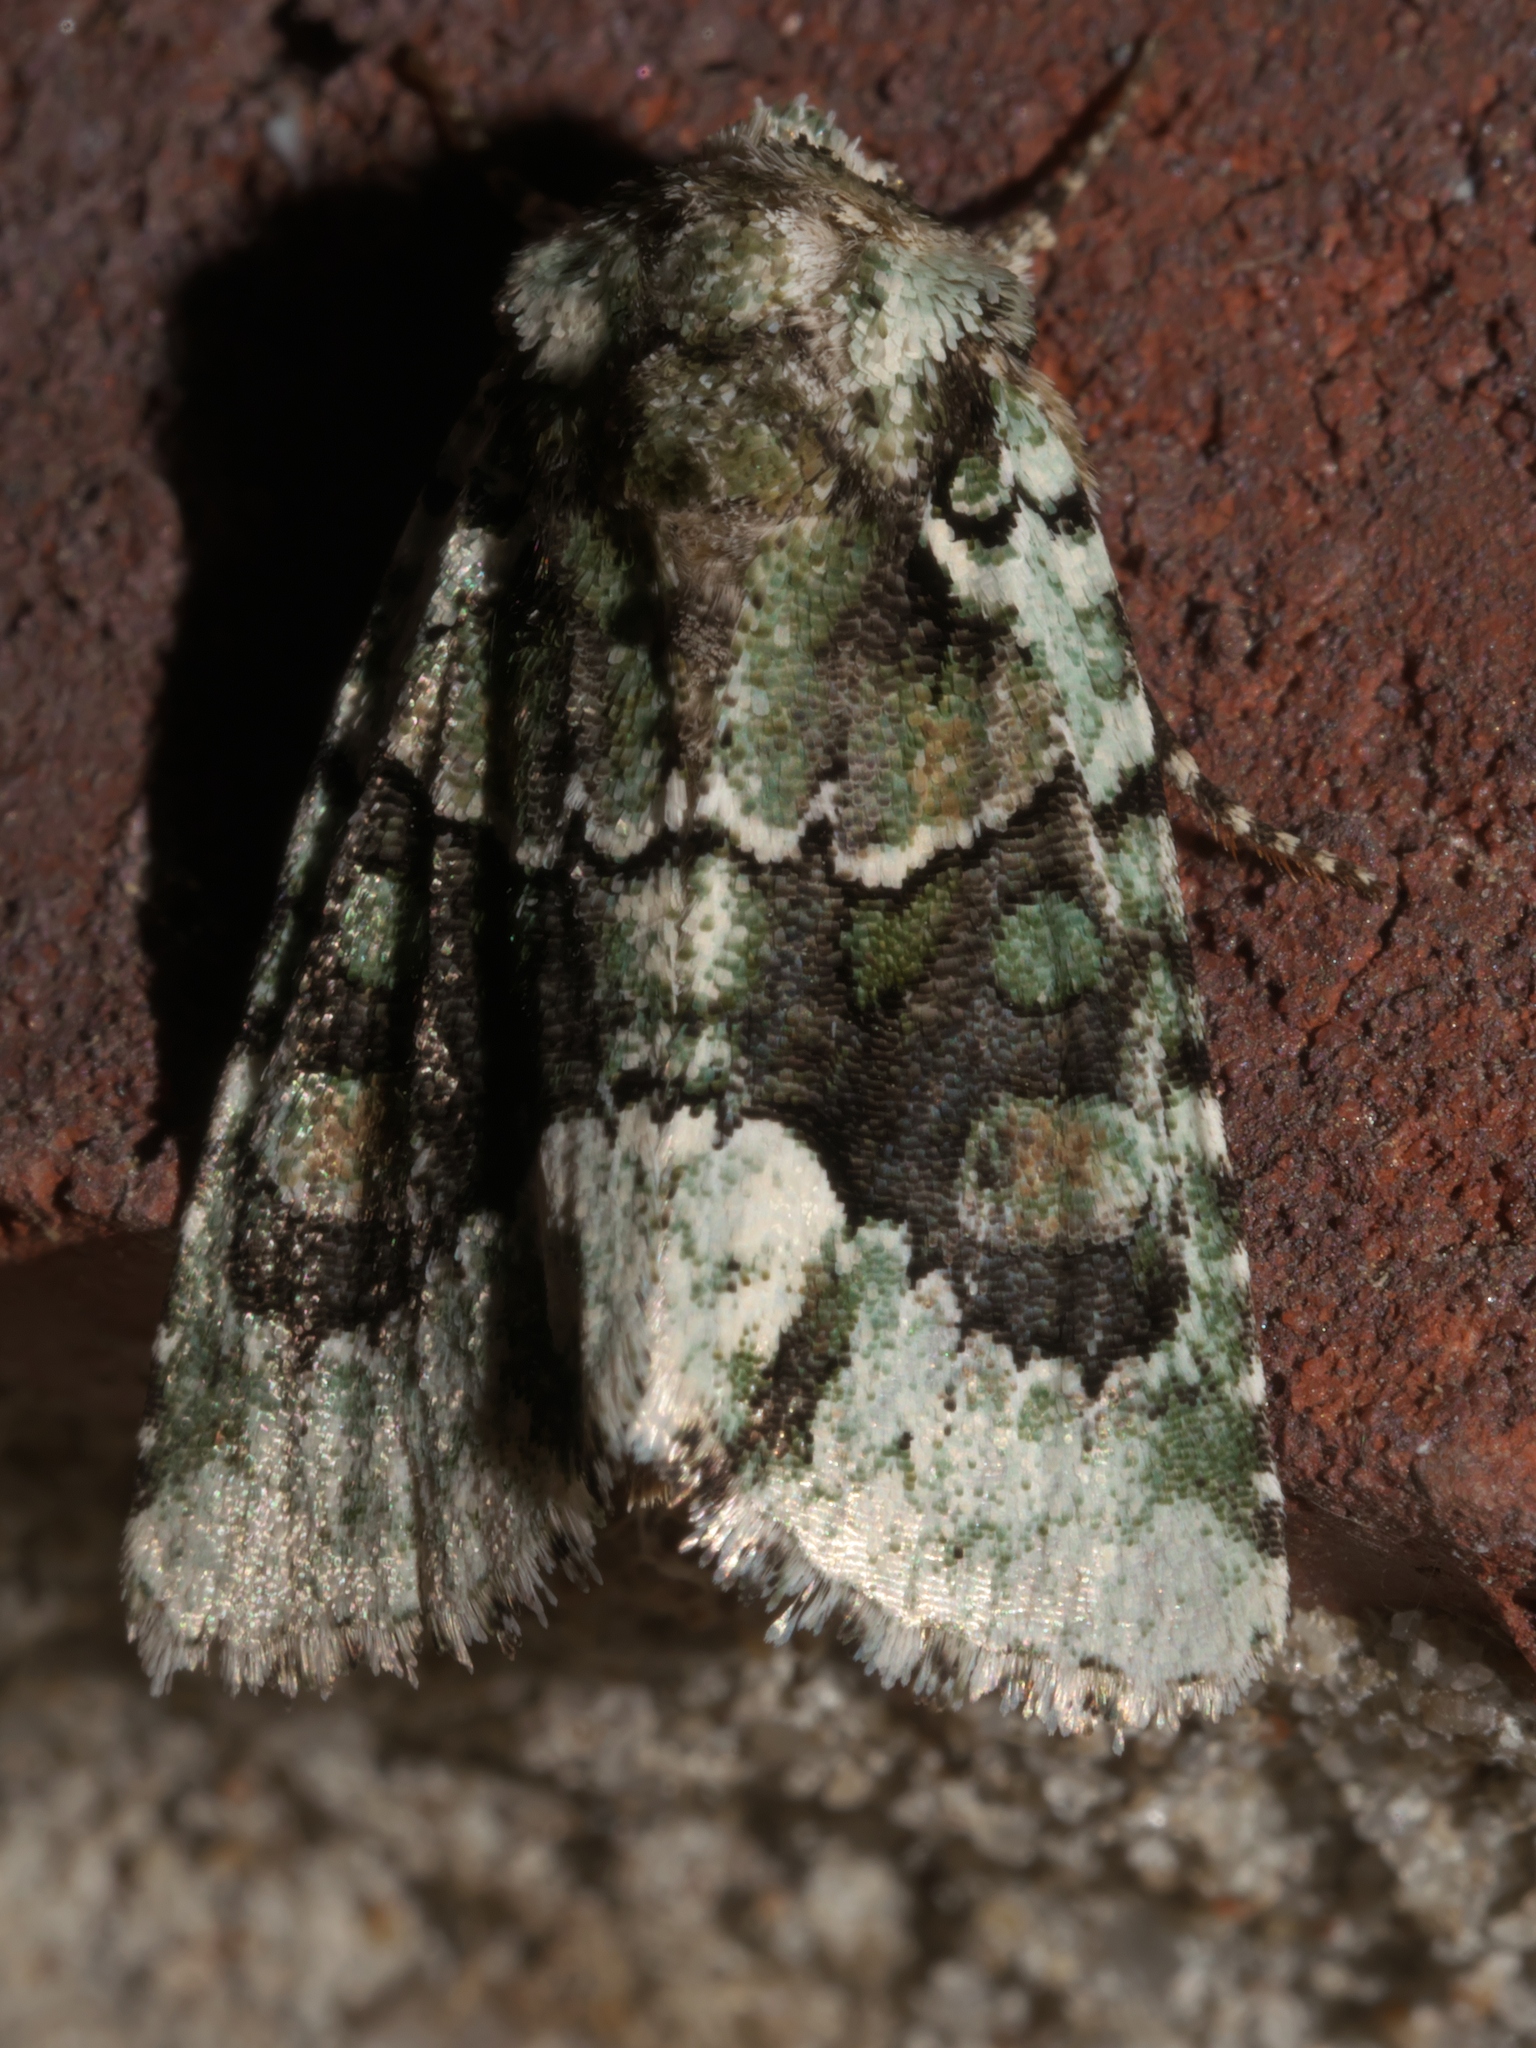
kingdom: Animalia
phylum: Arthropoda
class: Insecta
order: Lepidoptera
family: Noctuidae
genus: Lacinipolia
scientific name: Lacinipolia explicata
